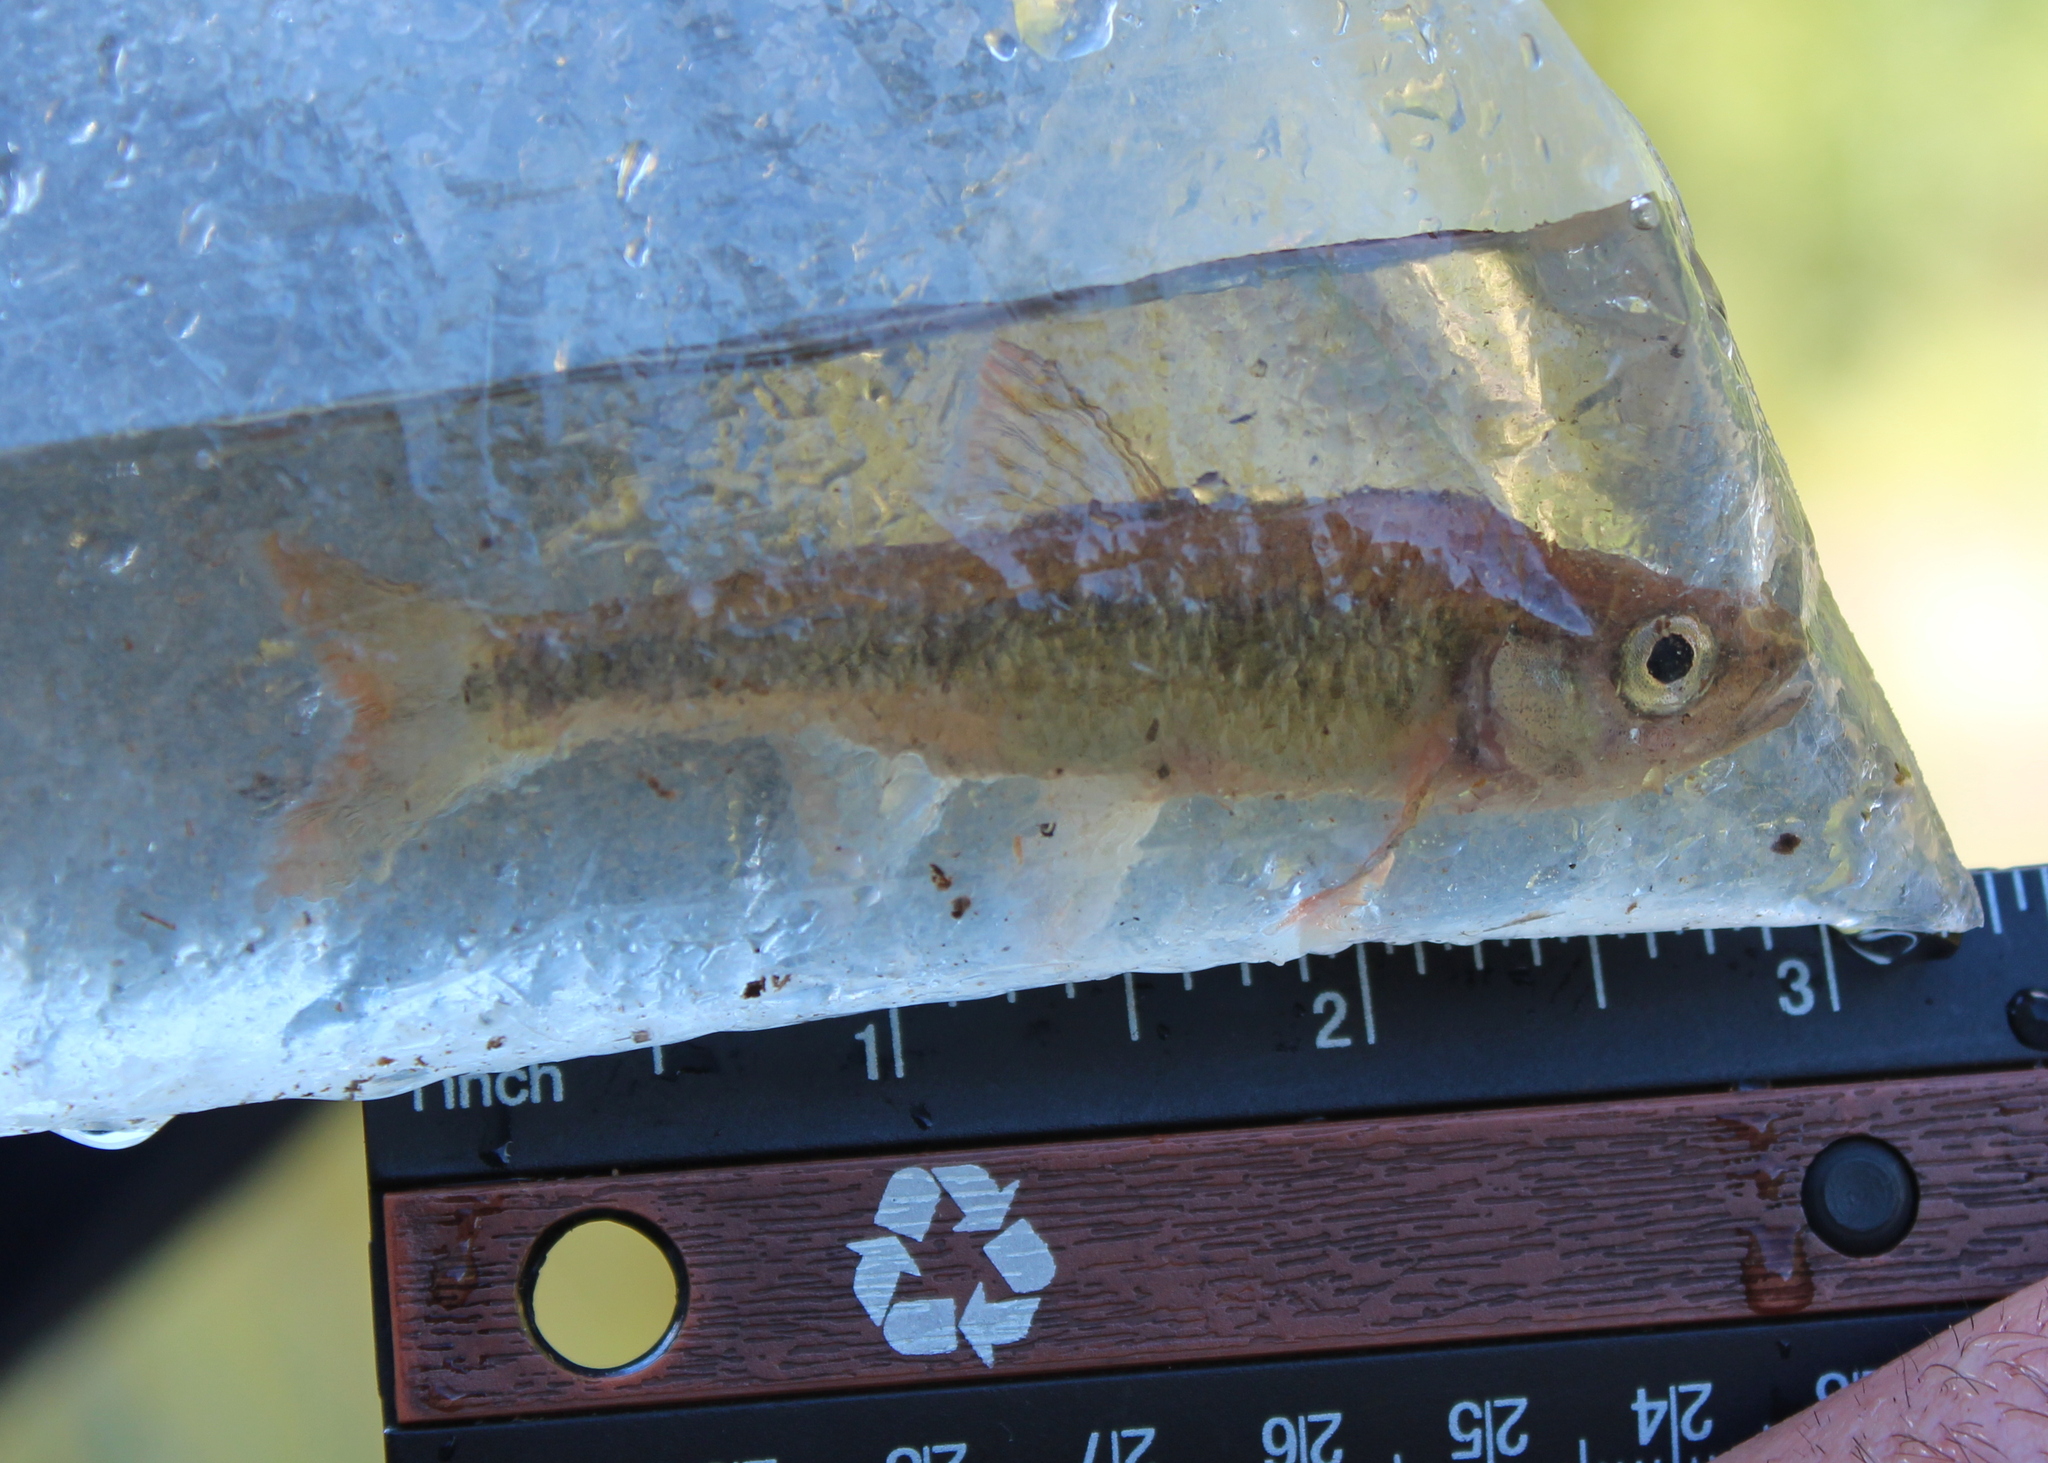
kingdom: Animalia
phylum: Chordata
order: Cypriniformes
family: Cyprinidae
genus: Luxilus
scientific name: Luxilus cornutus
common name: Common shiner
